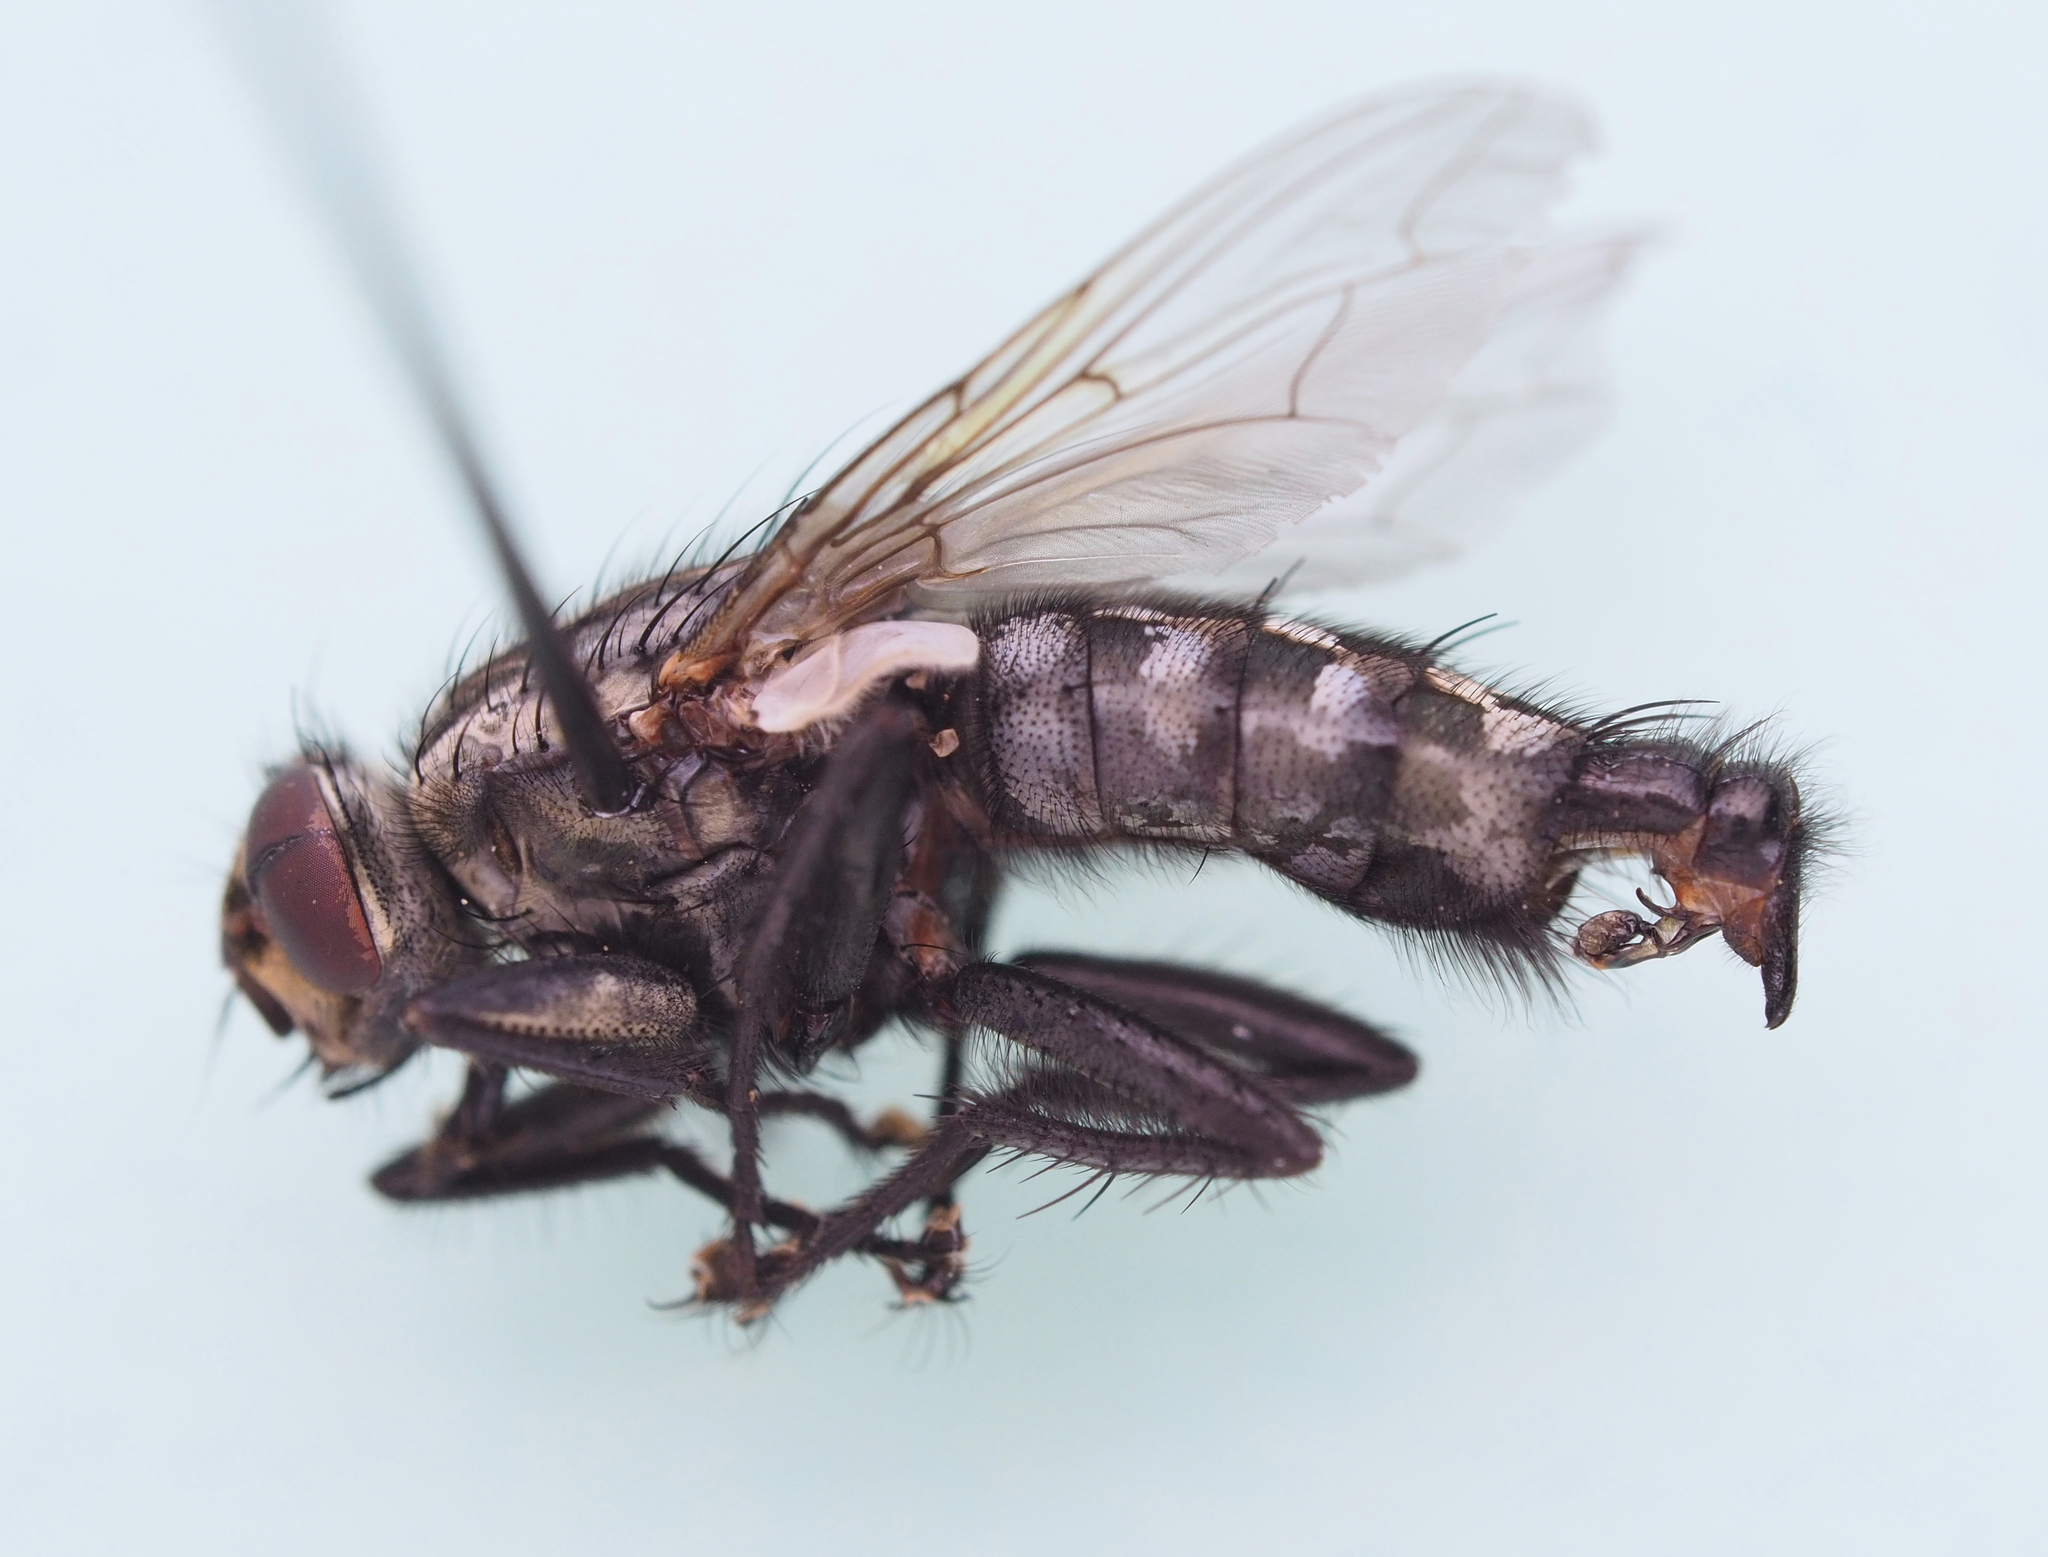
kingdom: Animalia
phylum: Arthropoda
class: Insecta
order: Diptera
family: Sarcophagidae
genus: Sarcophaga
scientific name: Sarcophaga subvicina
